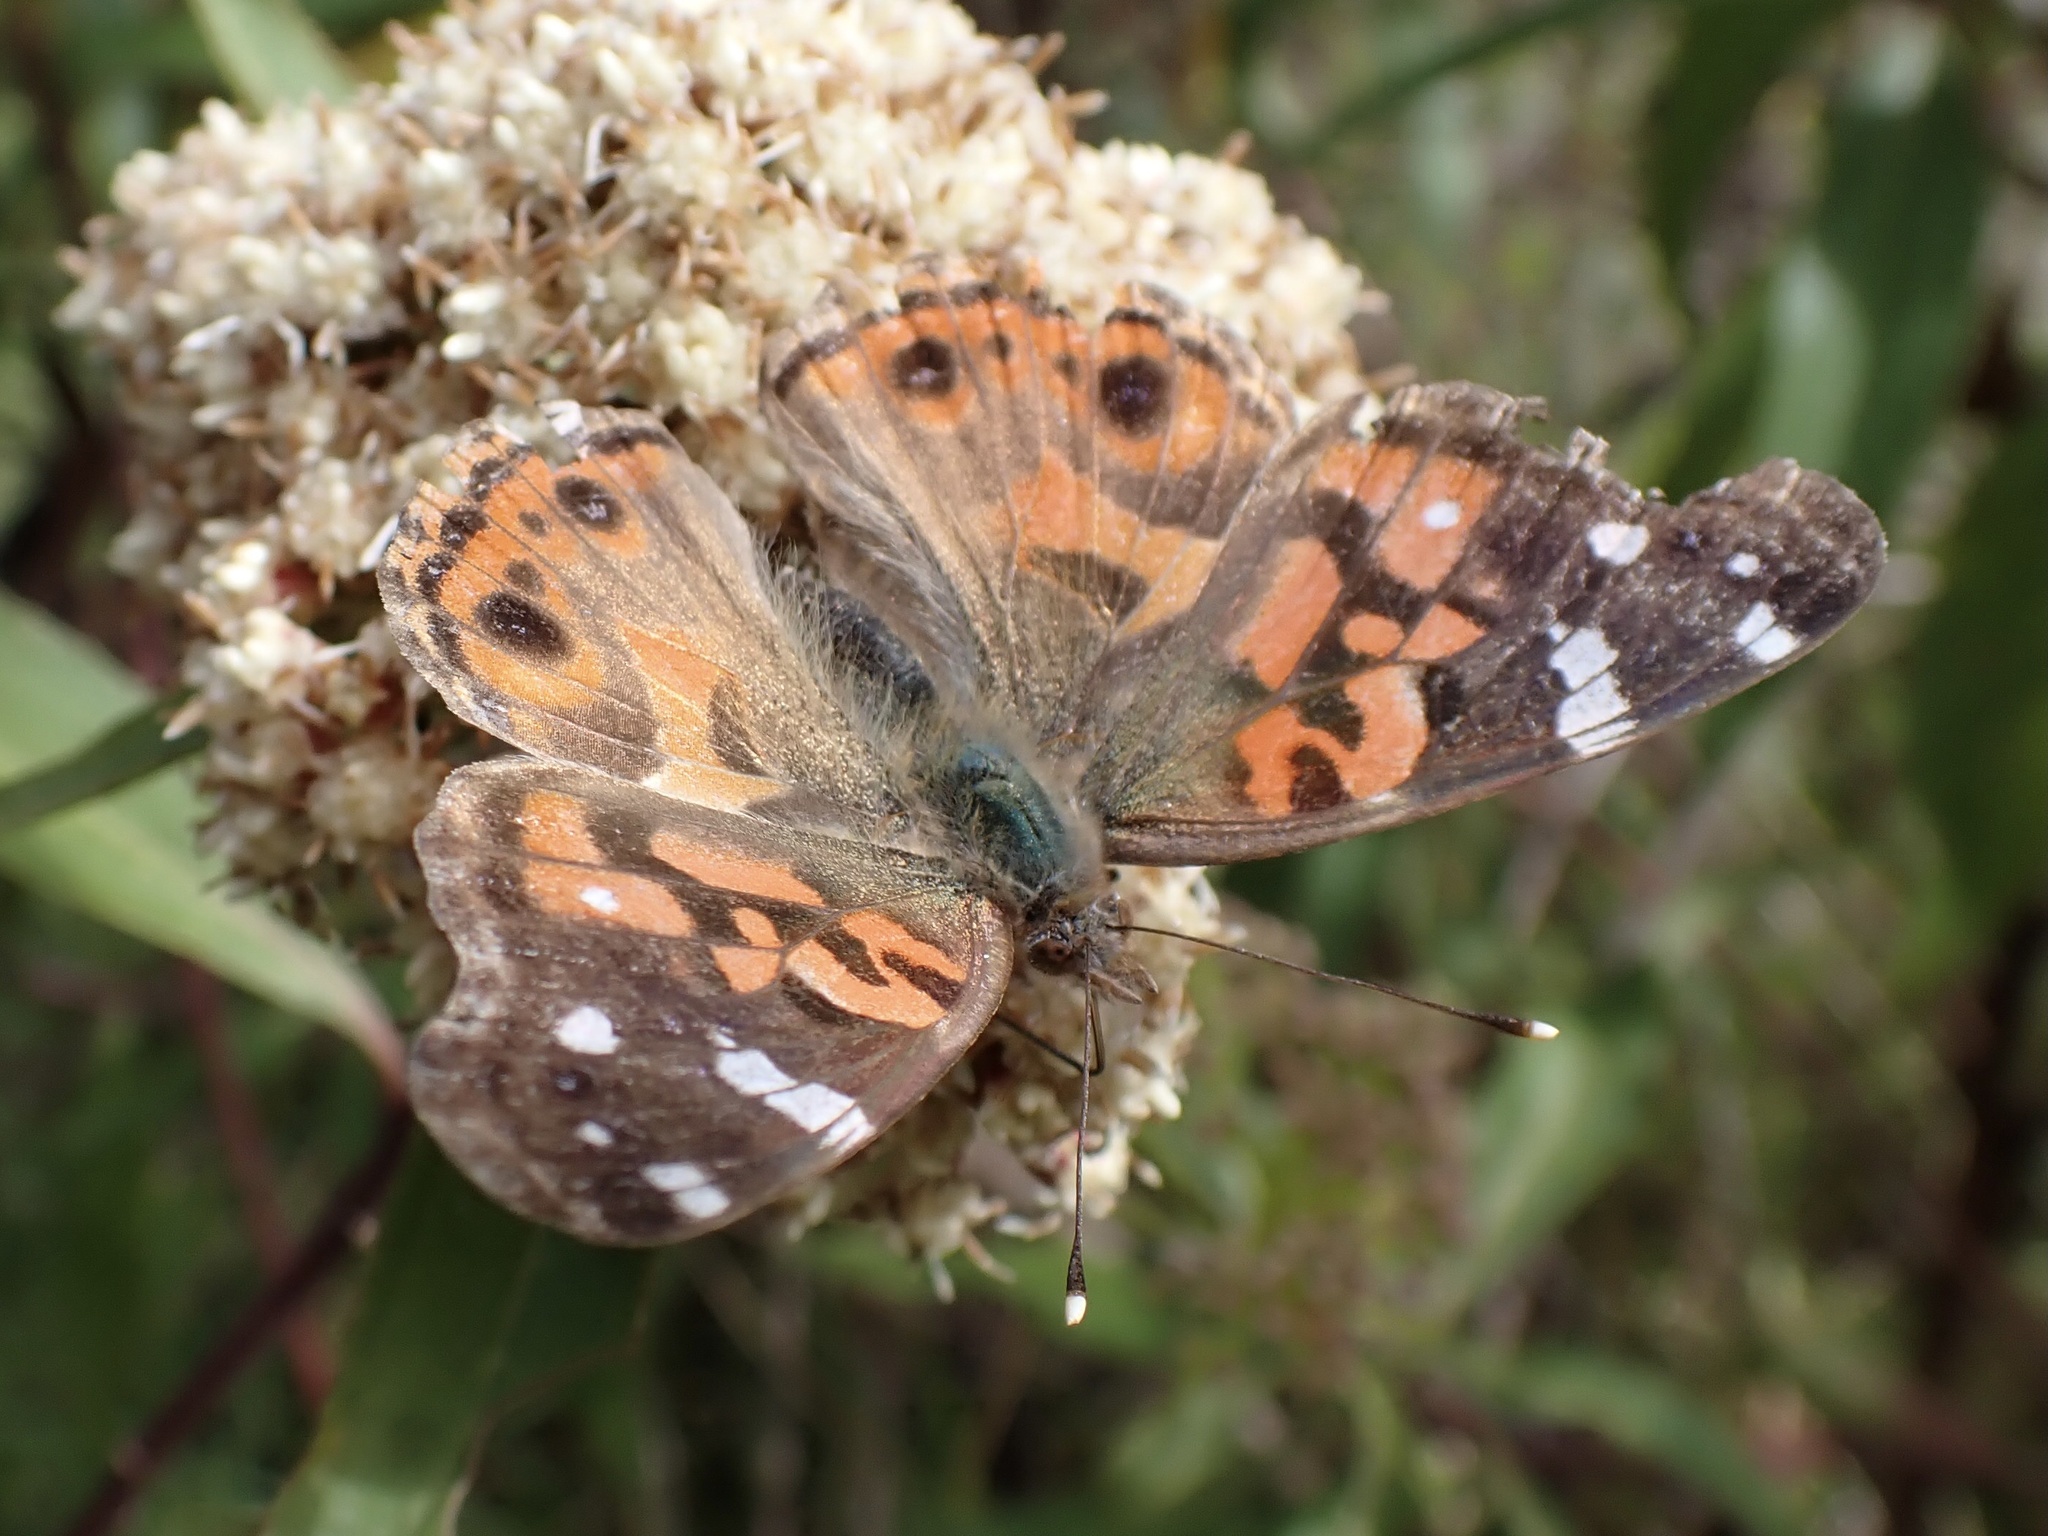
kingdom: Animalia
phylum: Arthropoda
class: Insecta
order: Lepidoptera
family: Nymphalidae
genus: Vanessa
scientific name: Vanessa braziliensis
